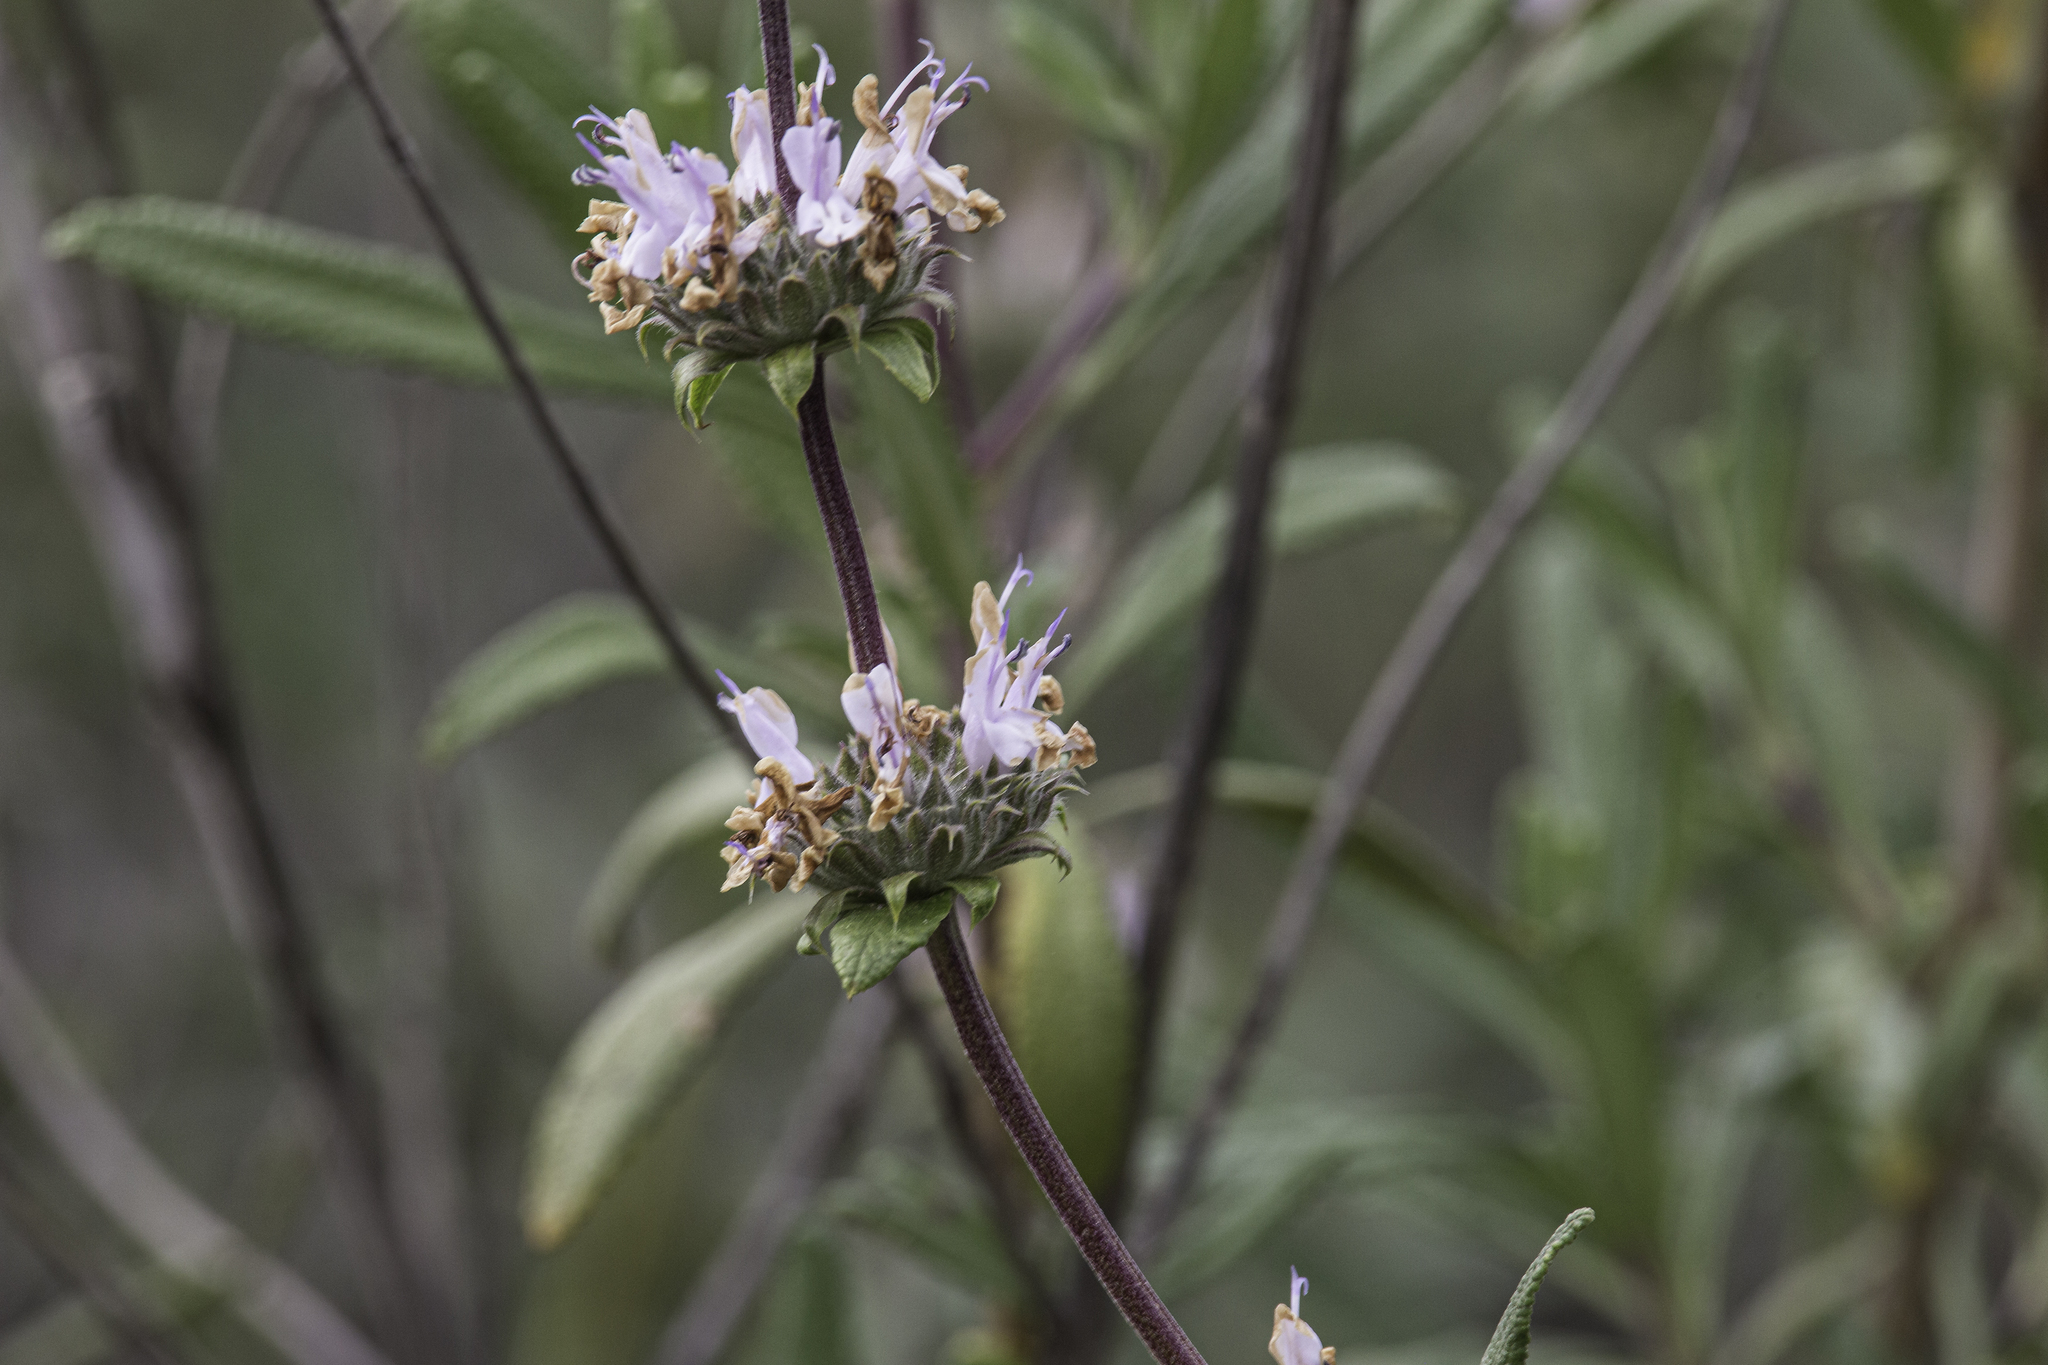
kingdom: Plantae
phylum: Tracheophyta
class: Magnoliopsida
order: Lamiales
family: Lamiaceae
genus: Salvia
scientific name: Salvia mellifera
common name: Black sage
